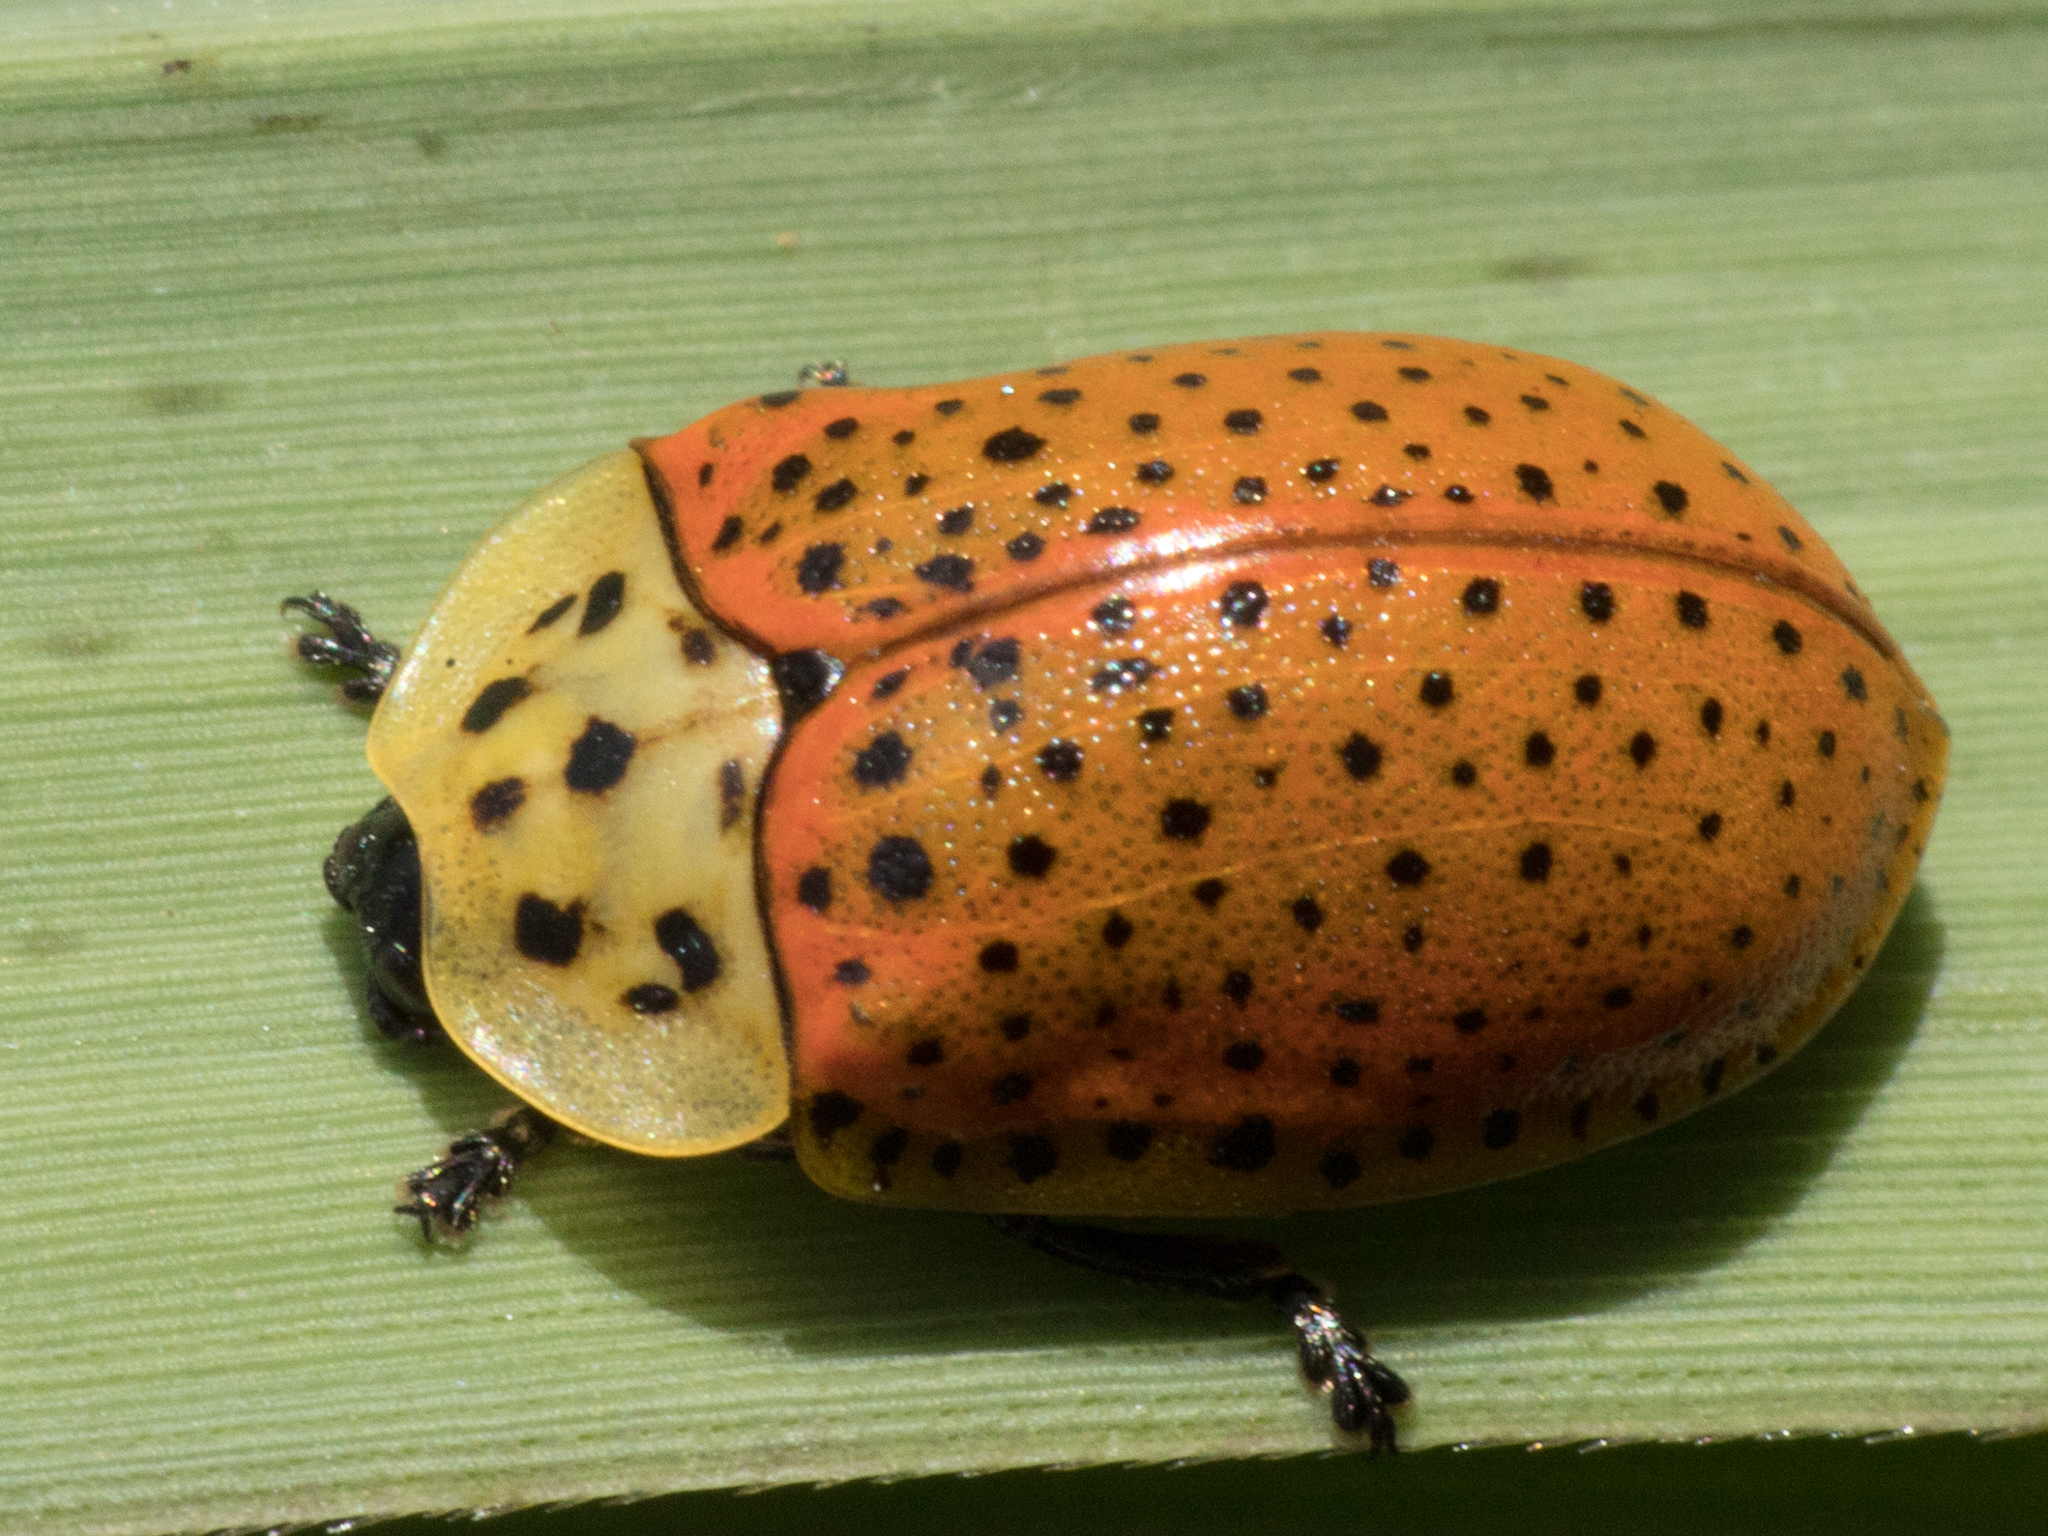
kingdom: Animalia
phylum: Arthropoda
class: Insecta
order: Coleoptera
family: Chrysomelidae
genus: Anacassis
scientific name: Anacassis cribrum
